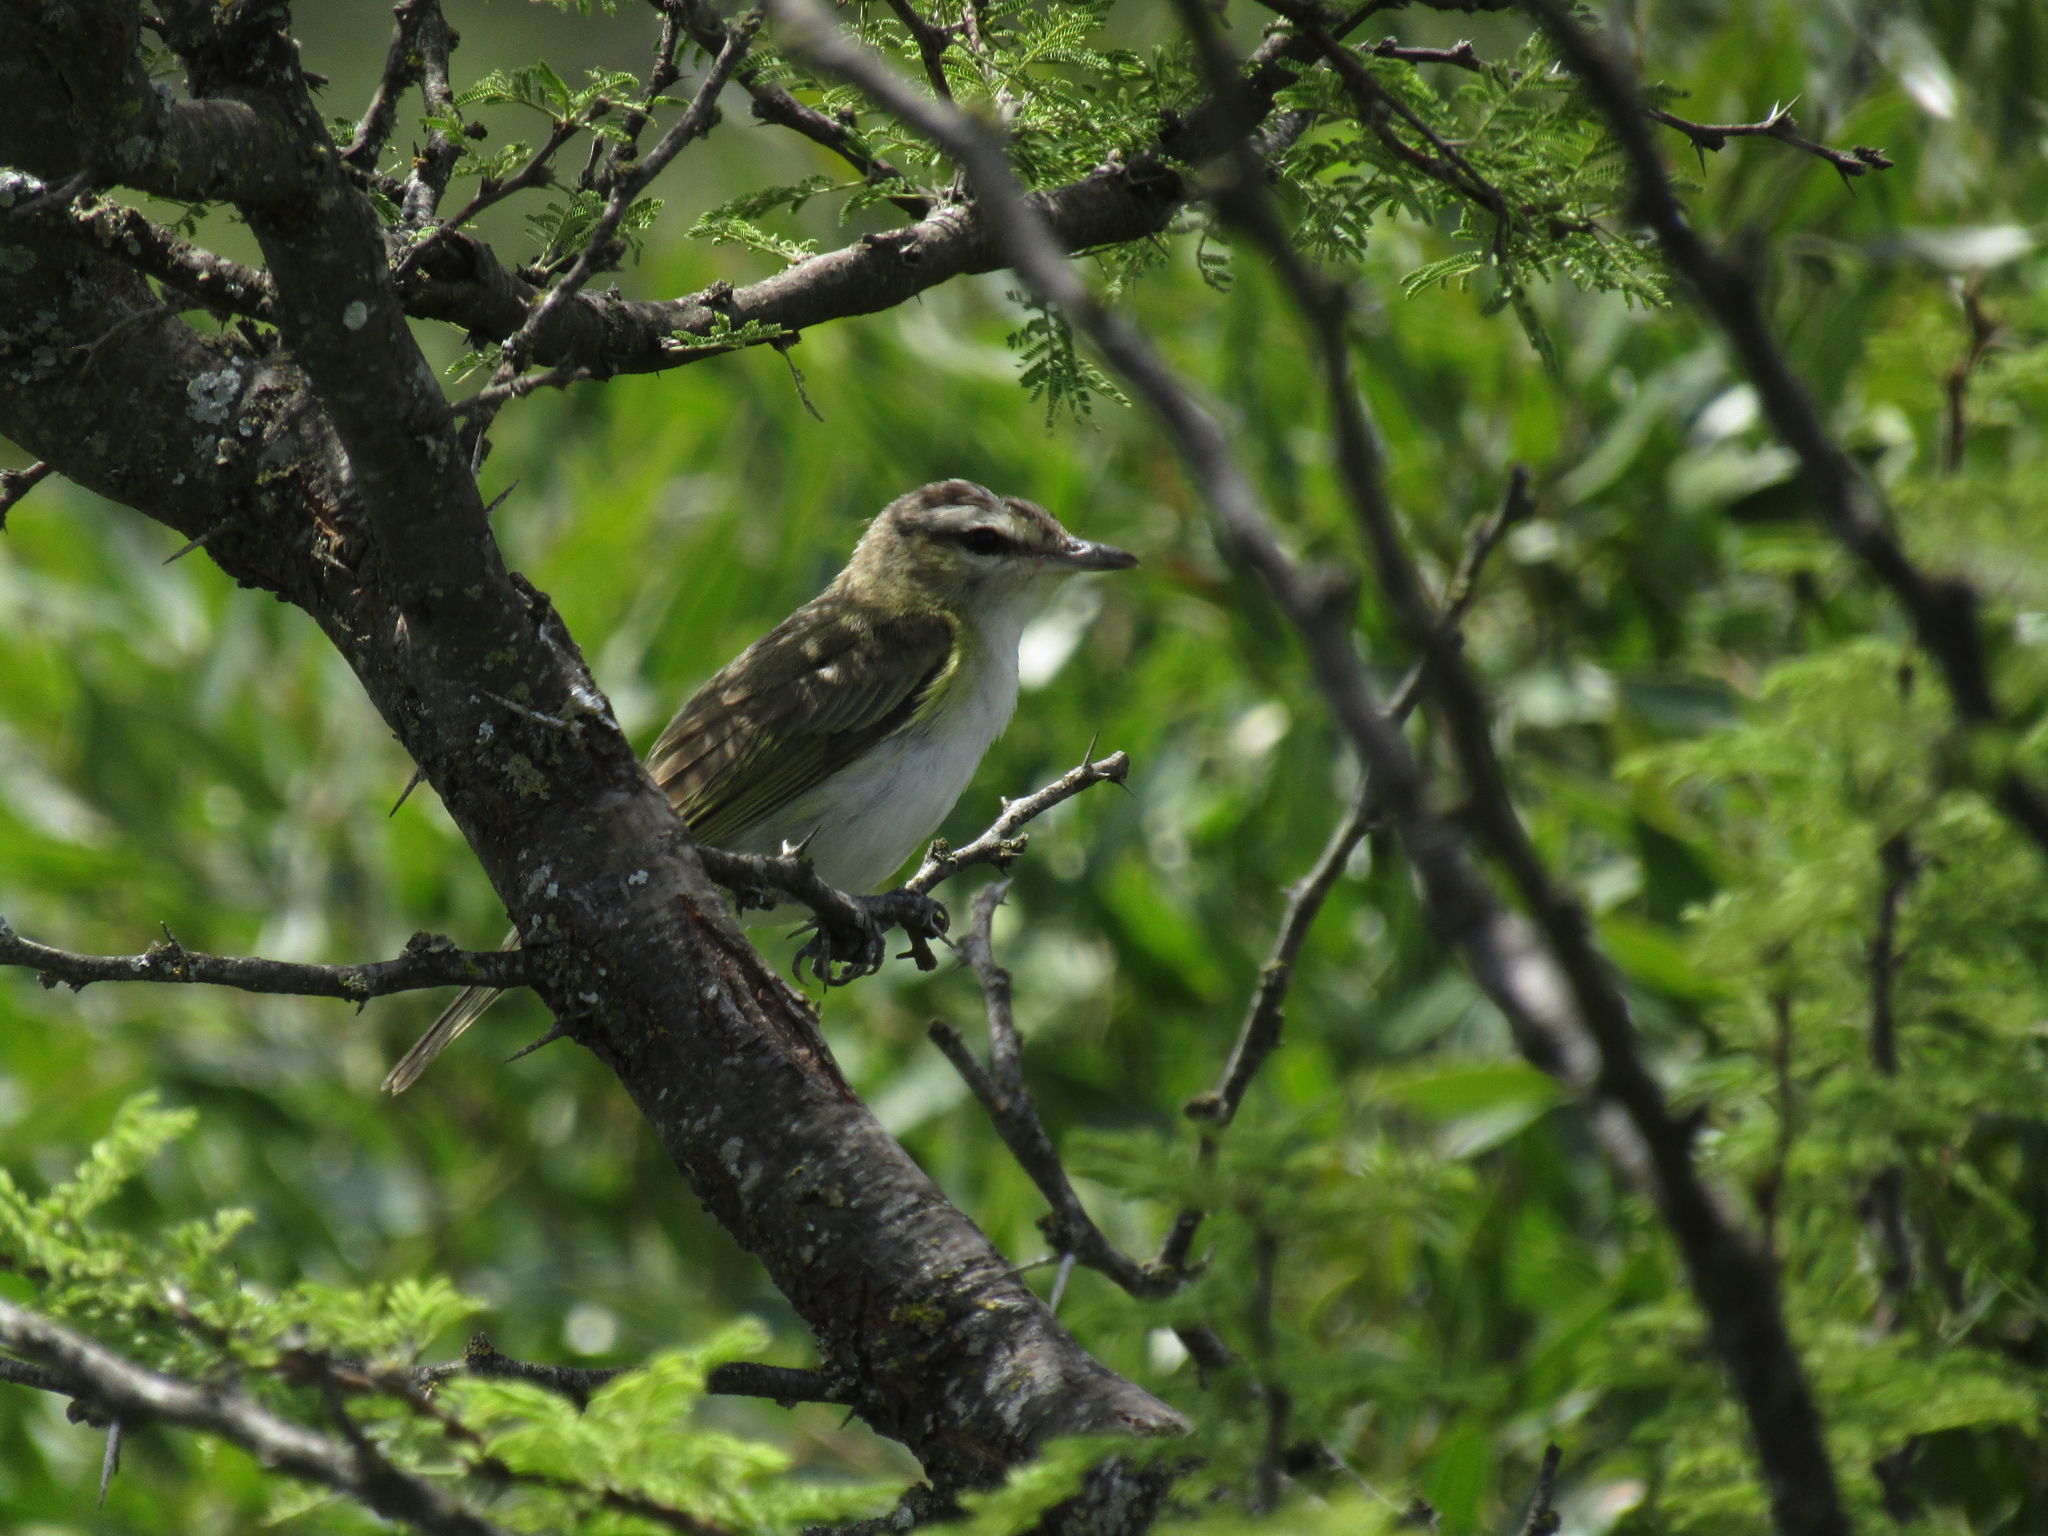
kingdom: Animalia
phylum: Chordata
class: Aves
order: Passeriformes
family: Vireonidae
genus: Vireo
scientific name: Vireo olivaceus
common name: Red-eyed vireo
